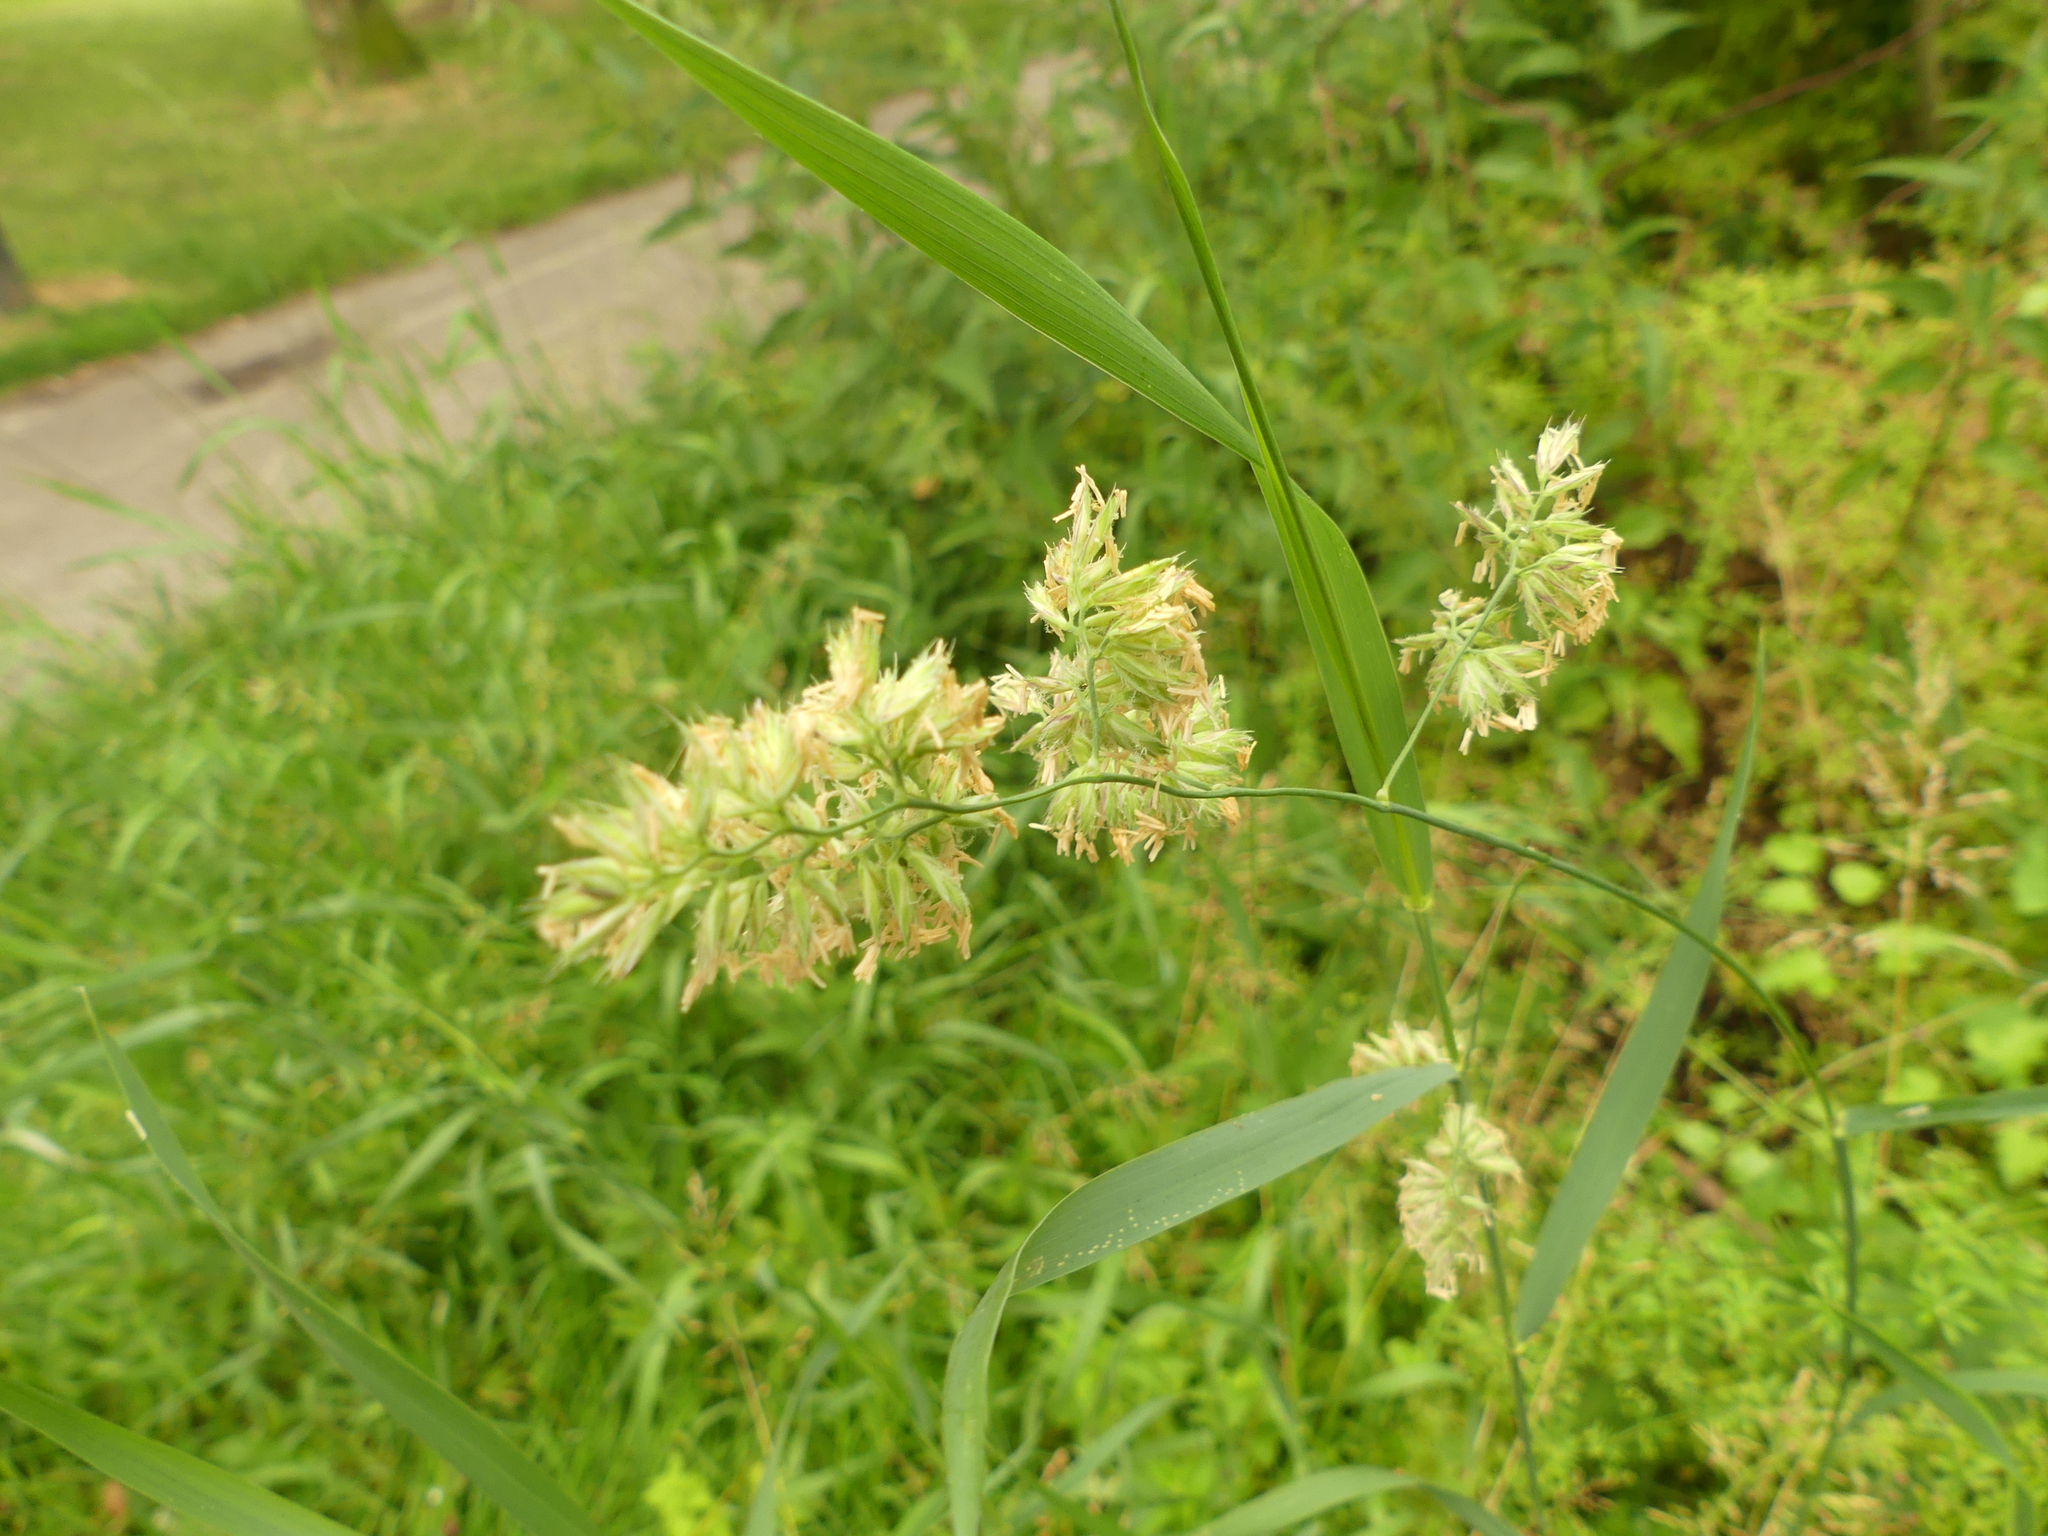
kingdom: Plantae
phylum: Tracheophyta
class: Liliopsida
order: Poales
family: Poaceae
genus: Dactylis
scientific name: Dactylis glomerata
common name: Orchardgrass
